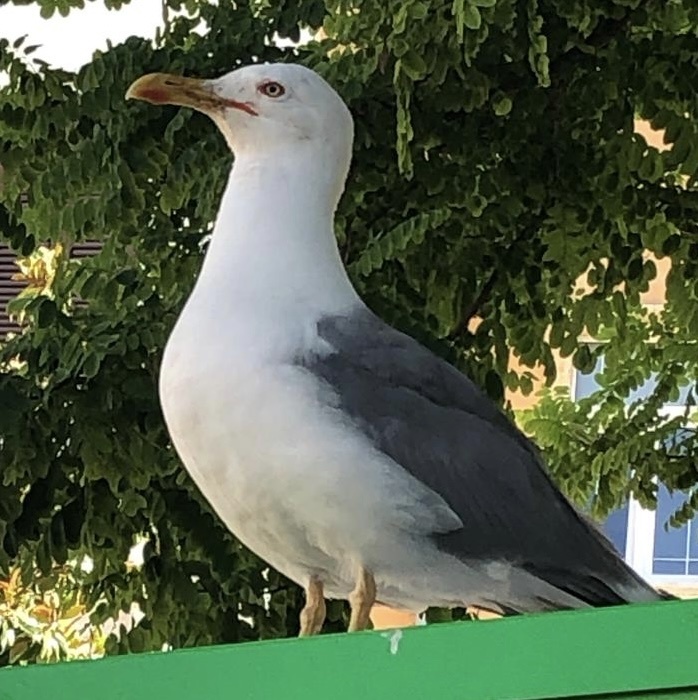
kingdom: Animalia
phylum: Chordata
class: Aves
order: Charadriiformes
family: Laridae
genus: Larus
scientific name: Larus michahellis
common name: Yellow-legged gull
